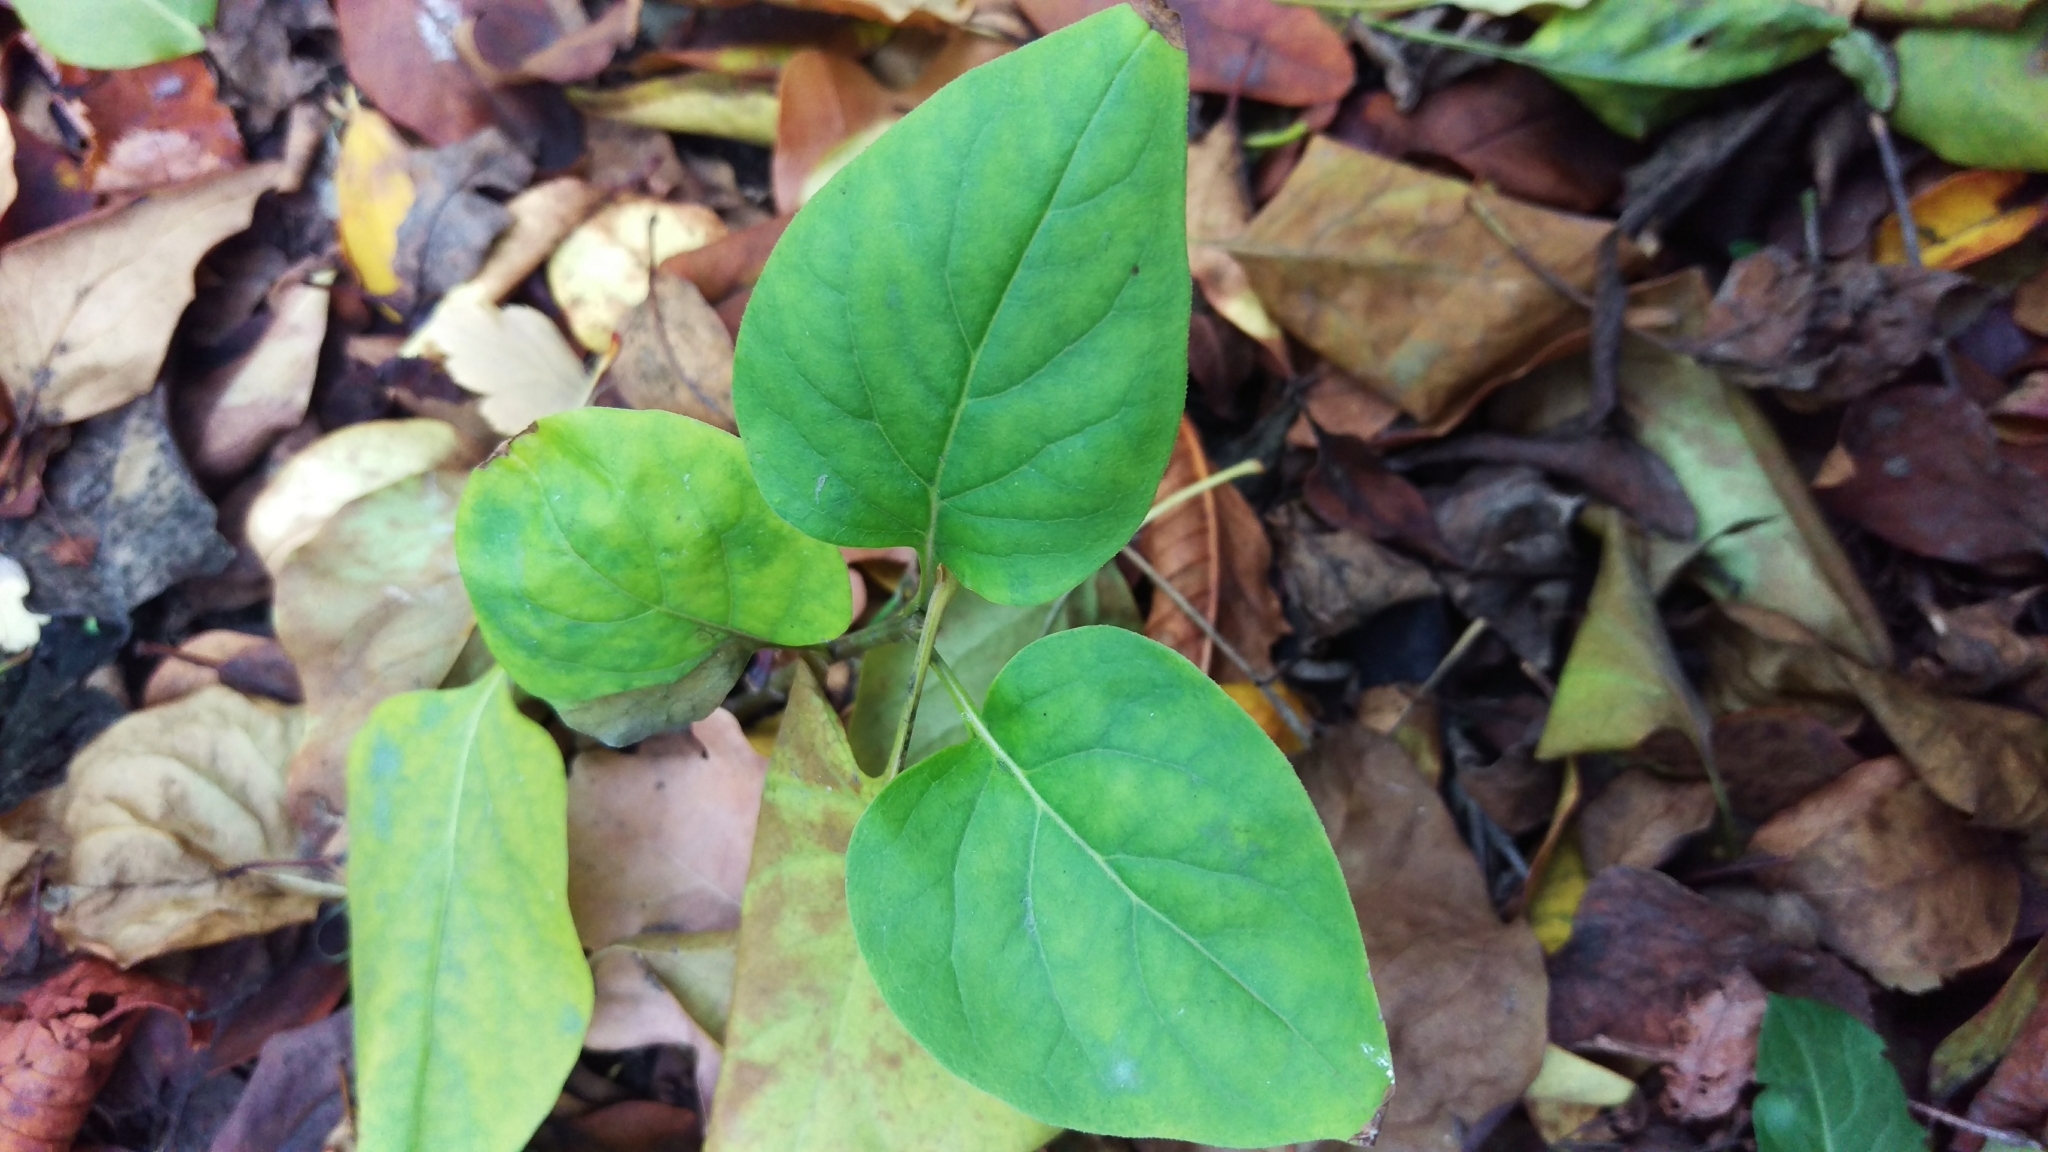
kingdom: Plantae
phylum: Tracheophyta
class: Magnoliopsida
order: Lamiales
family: Oleaceae
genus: Syringa
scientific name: Syringa vulgaris
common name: Common lilac
